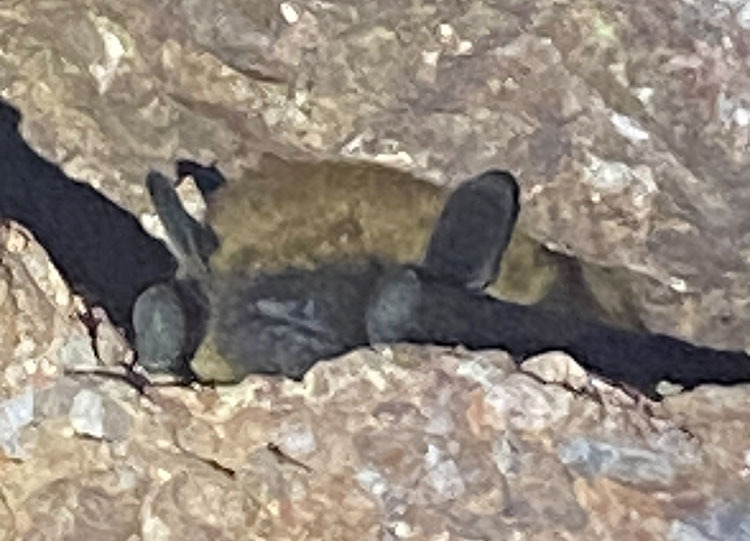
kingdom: Animalia
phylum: Chordata
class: Mammalia
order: Chiroptera
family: Vespertilionidae
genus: Eptesicus
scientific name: Eptesicus fuscus
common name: Big brown bat
